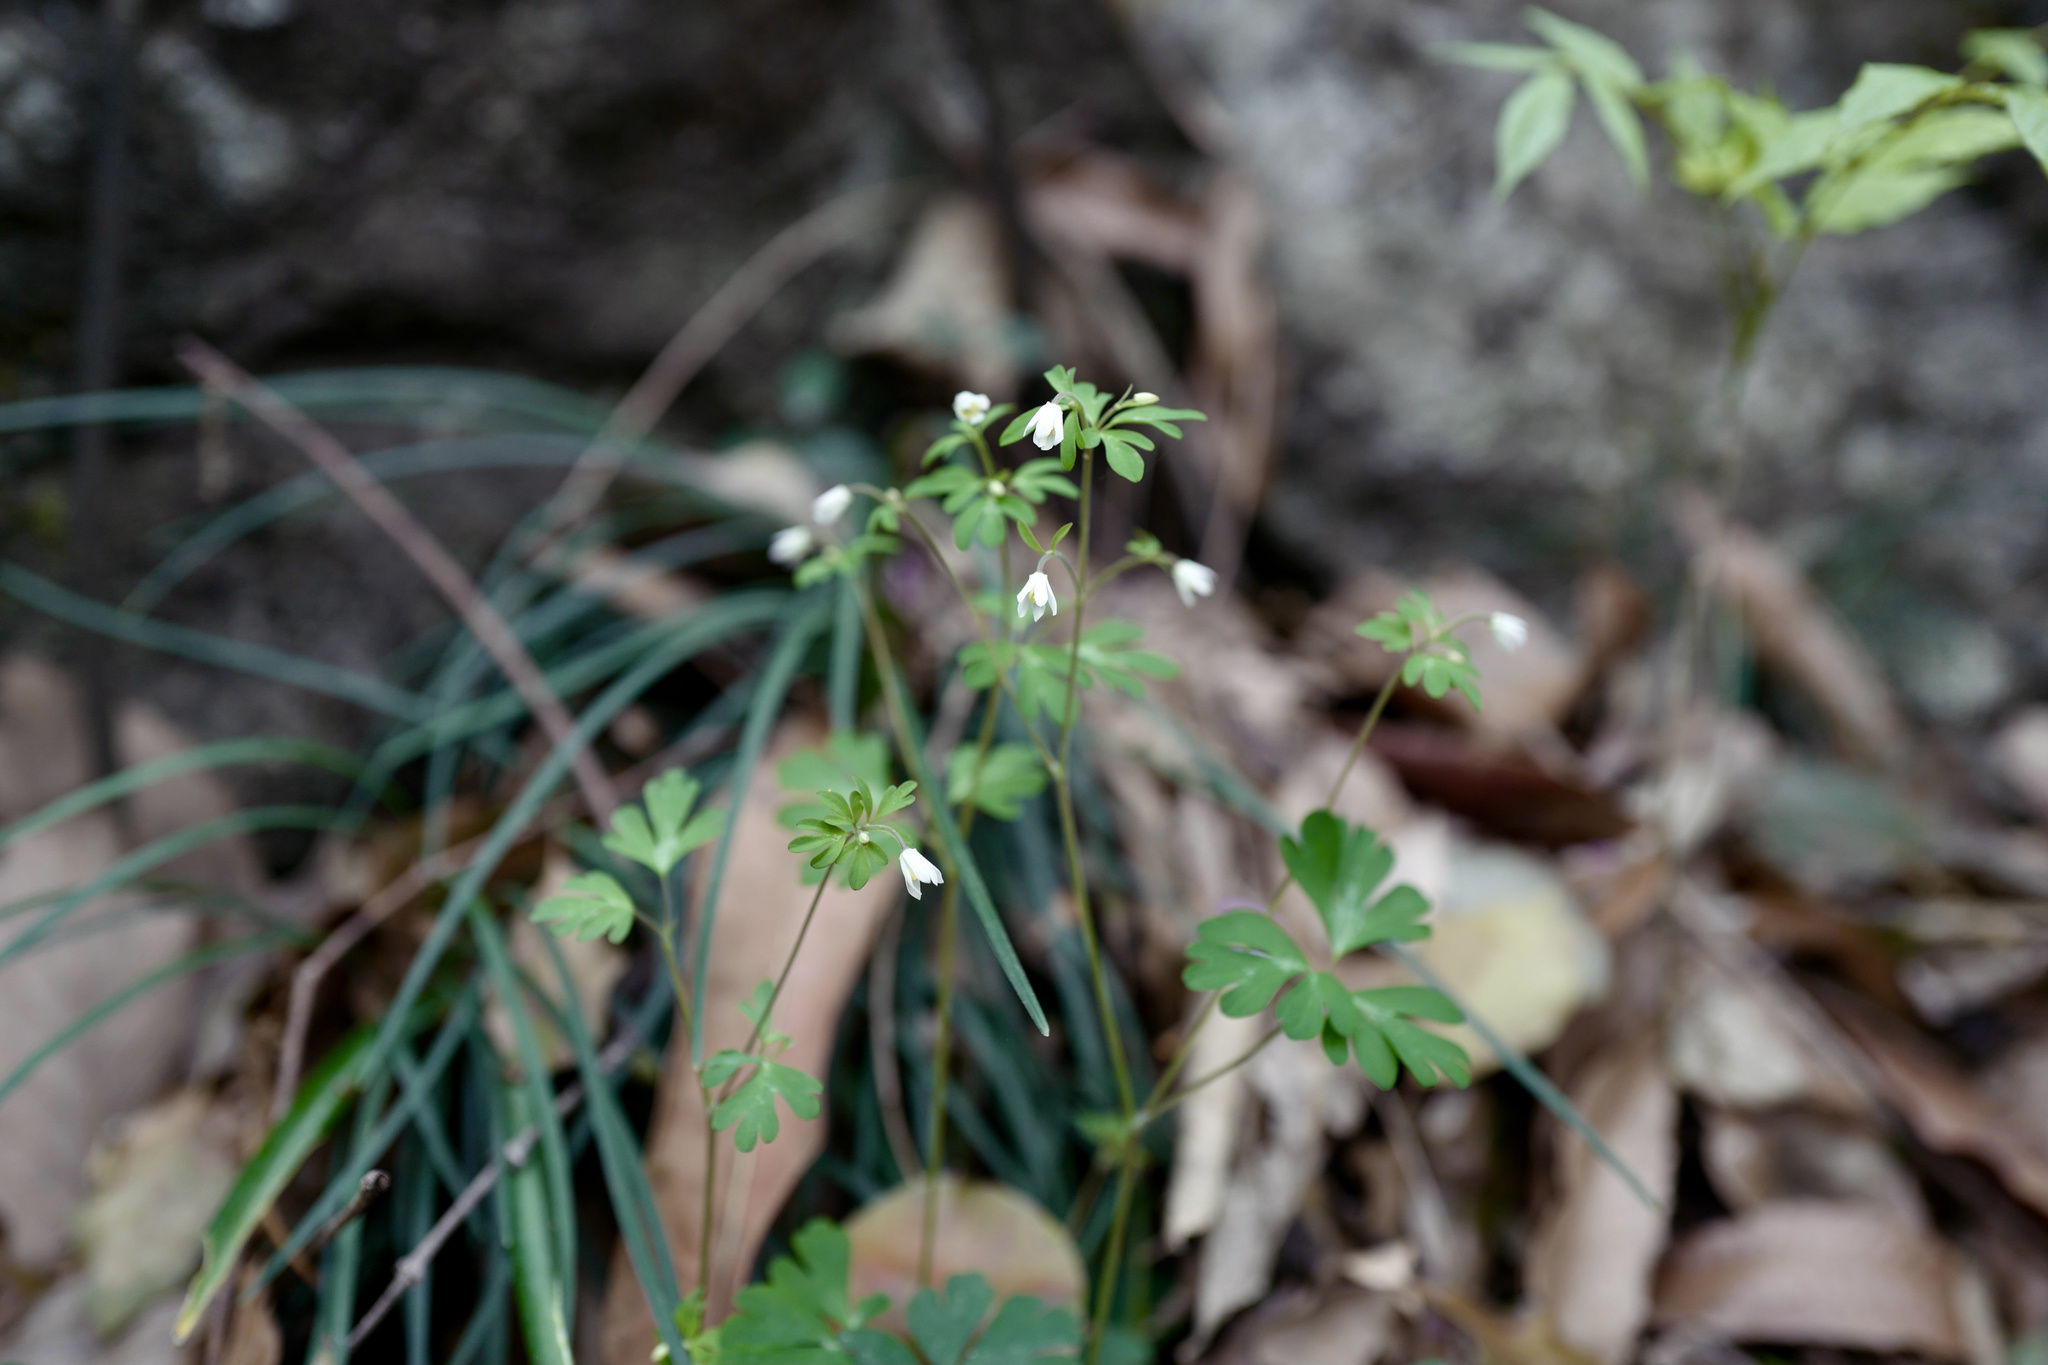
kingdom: Plantae
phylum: Tracheophyta
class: Magnoliopsida
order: Ranunculales
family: Ranunculaceae
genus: Semiaquilegia
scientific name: Semiaquilegia adoxoides
